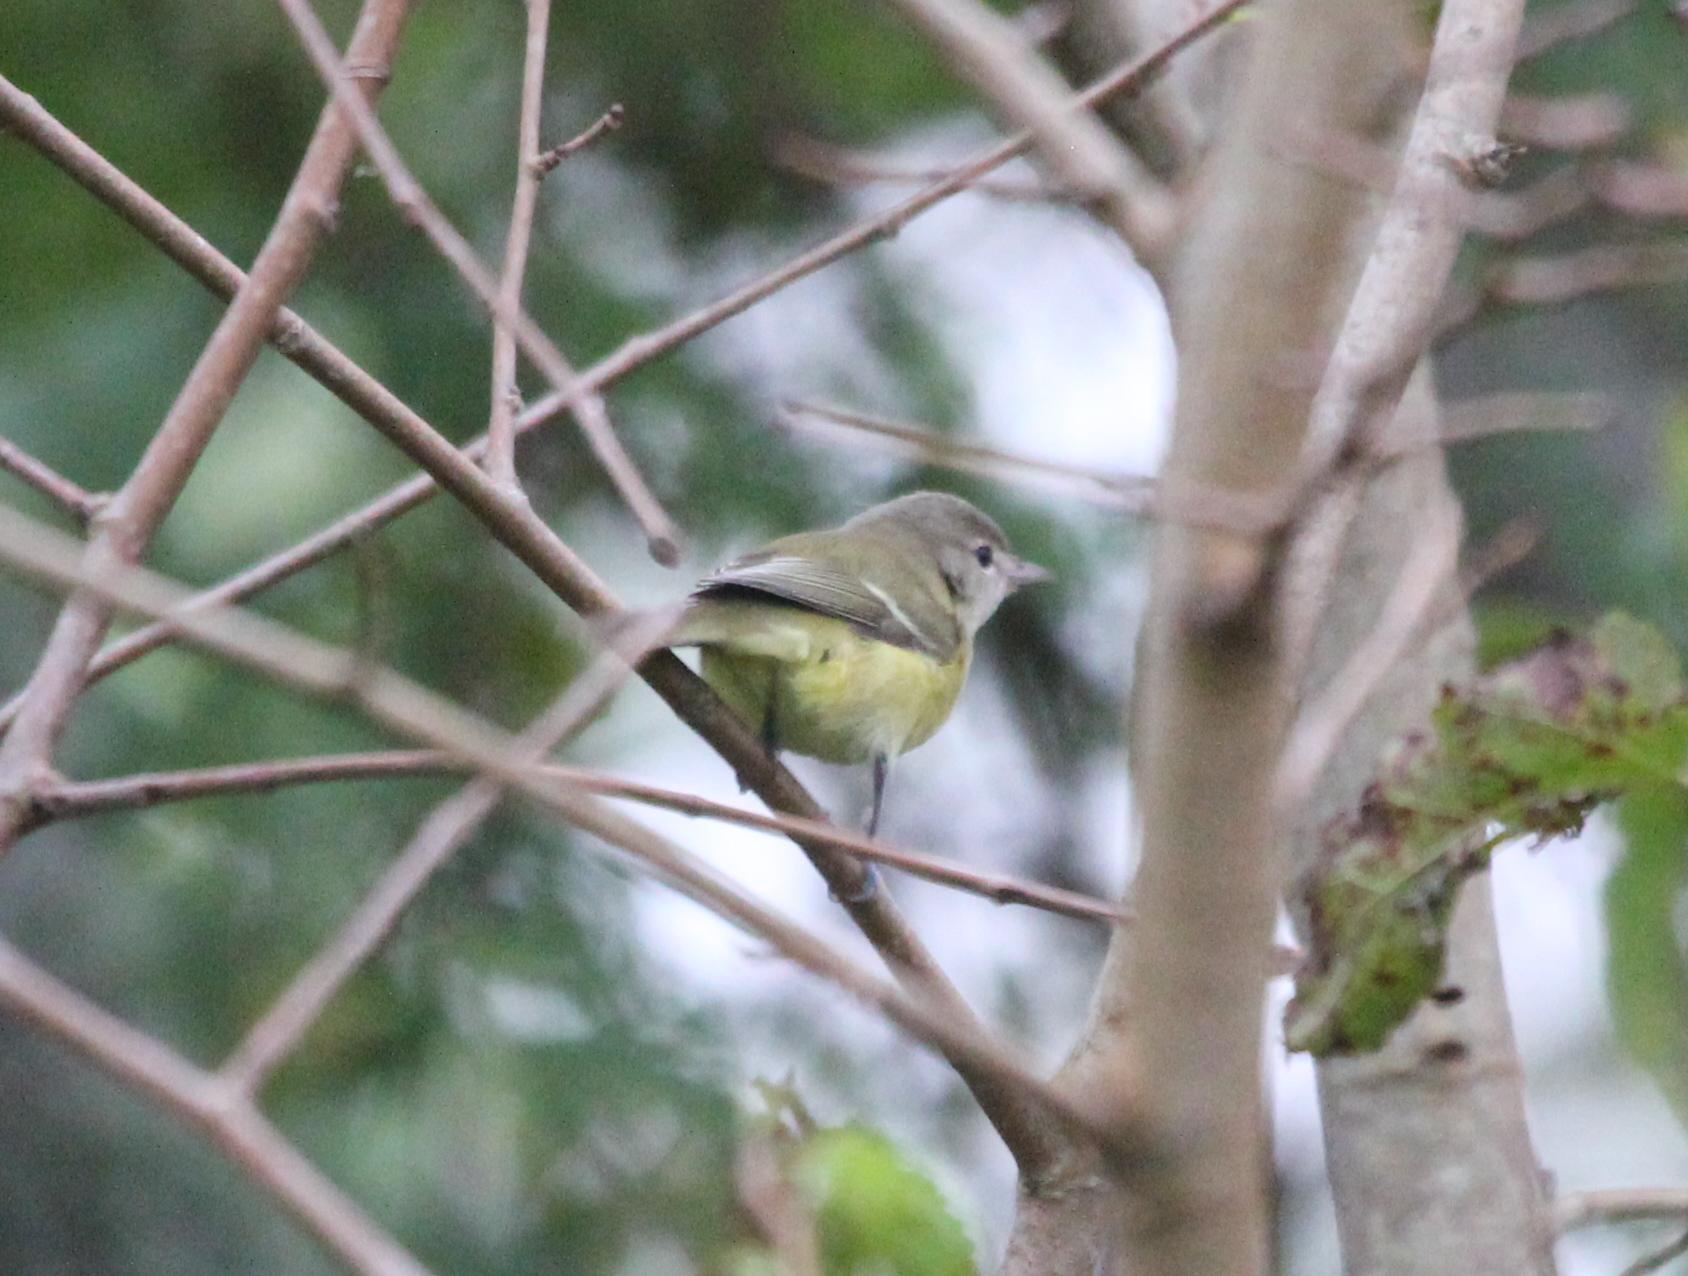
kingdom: Animalia
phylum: Chordata
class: Aves
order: Passeriformes
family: Vireonidae
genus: Vireo
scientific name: Vireo bellii
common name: Bell's vireo
